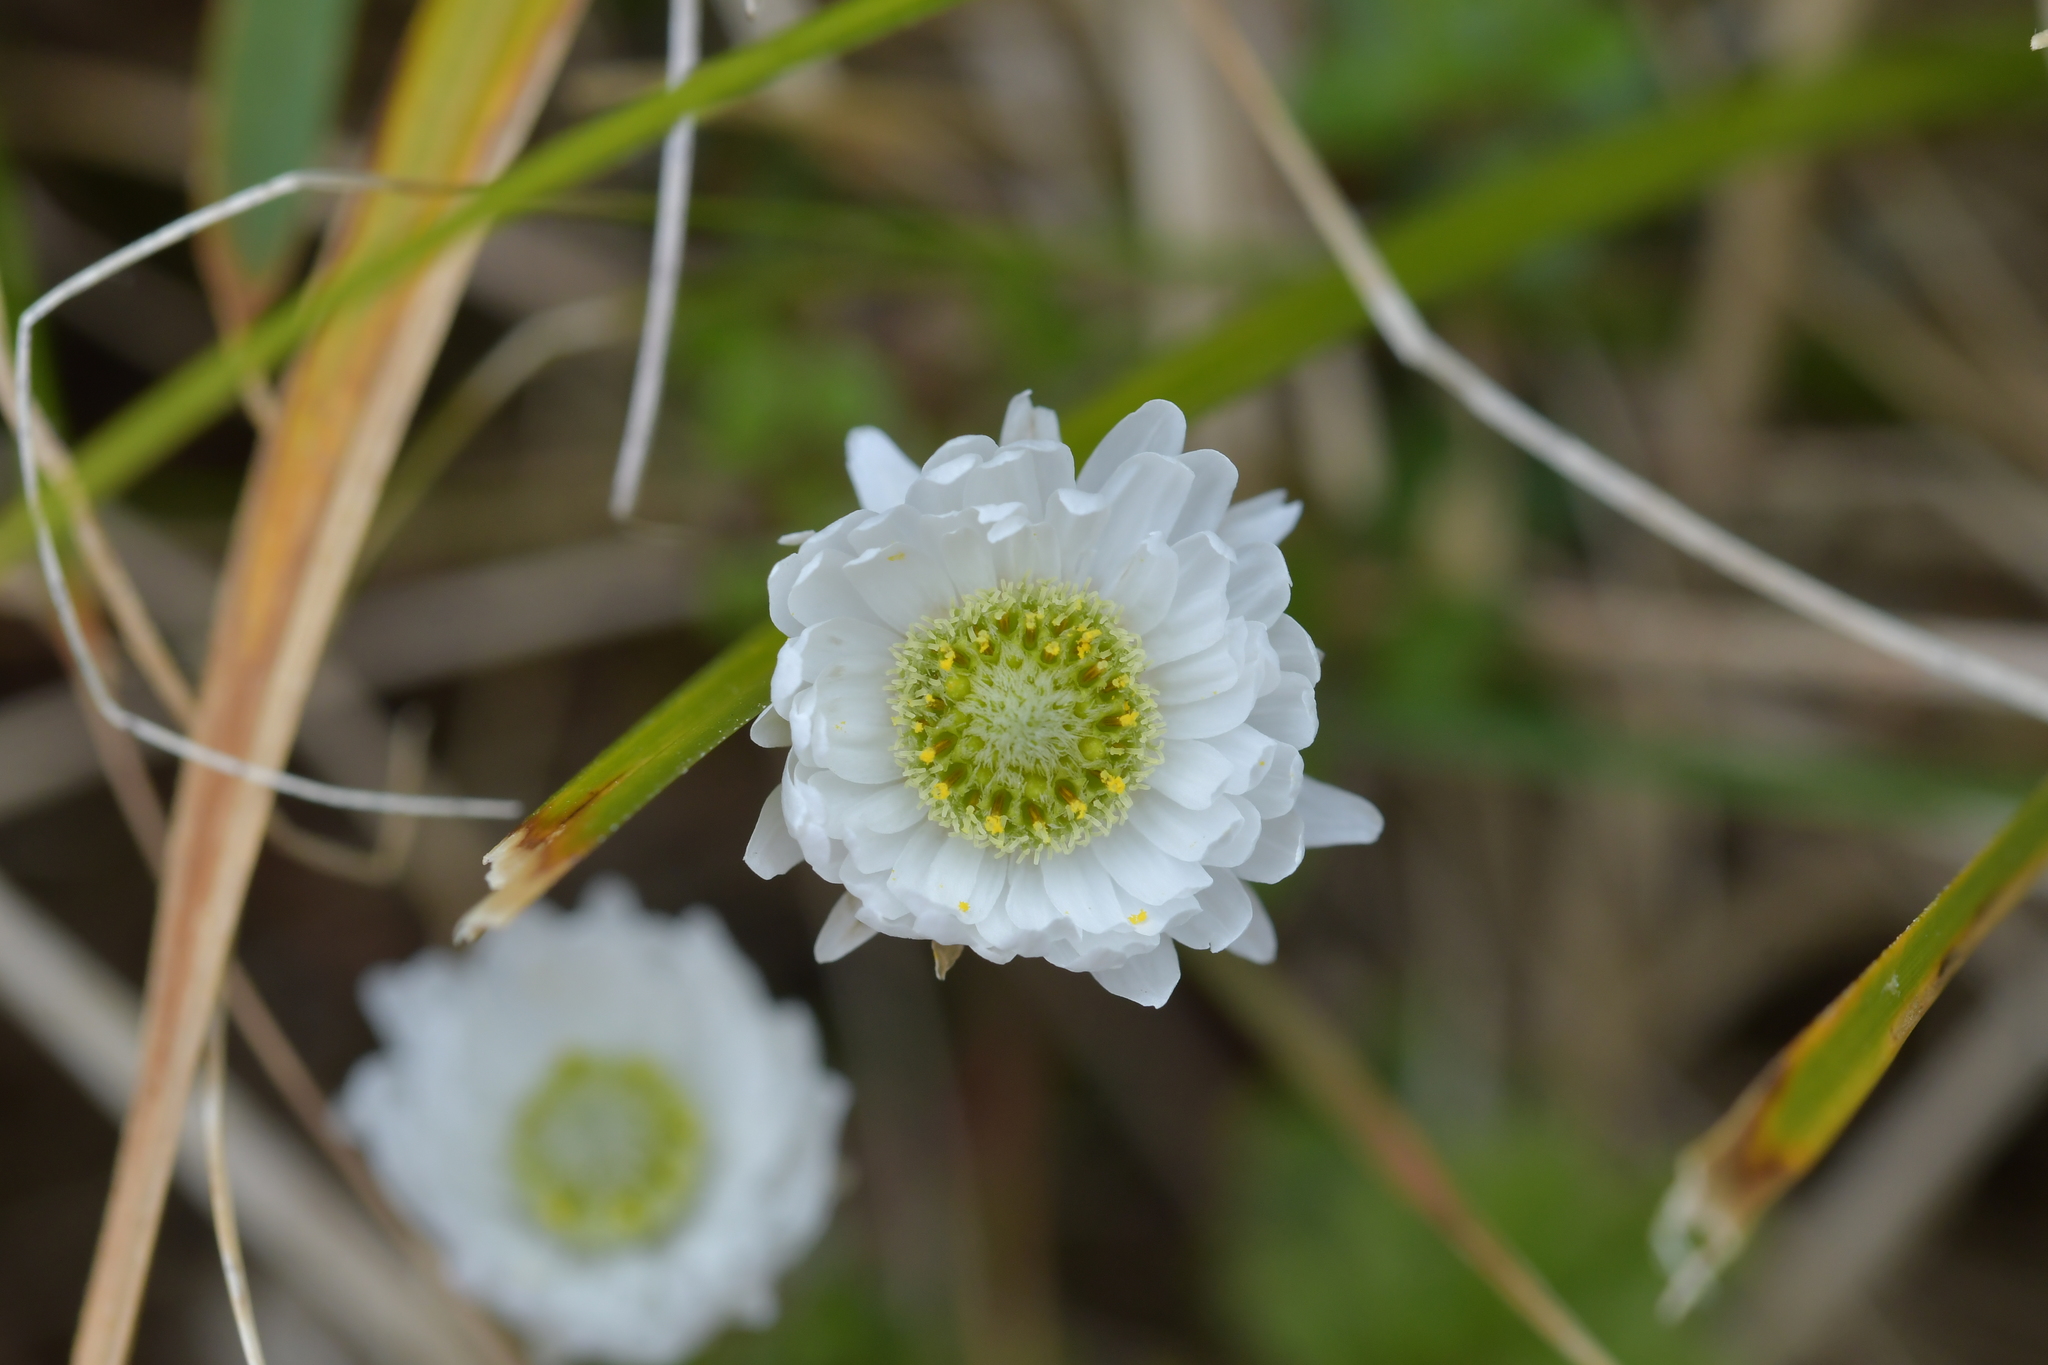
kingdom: Plantae
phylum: Tracheophyta
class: Magnoliopsida
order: Asterales
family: Asteraceae
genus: Anaphalioides
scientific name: Anaphalioides bellidioides
